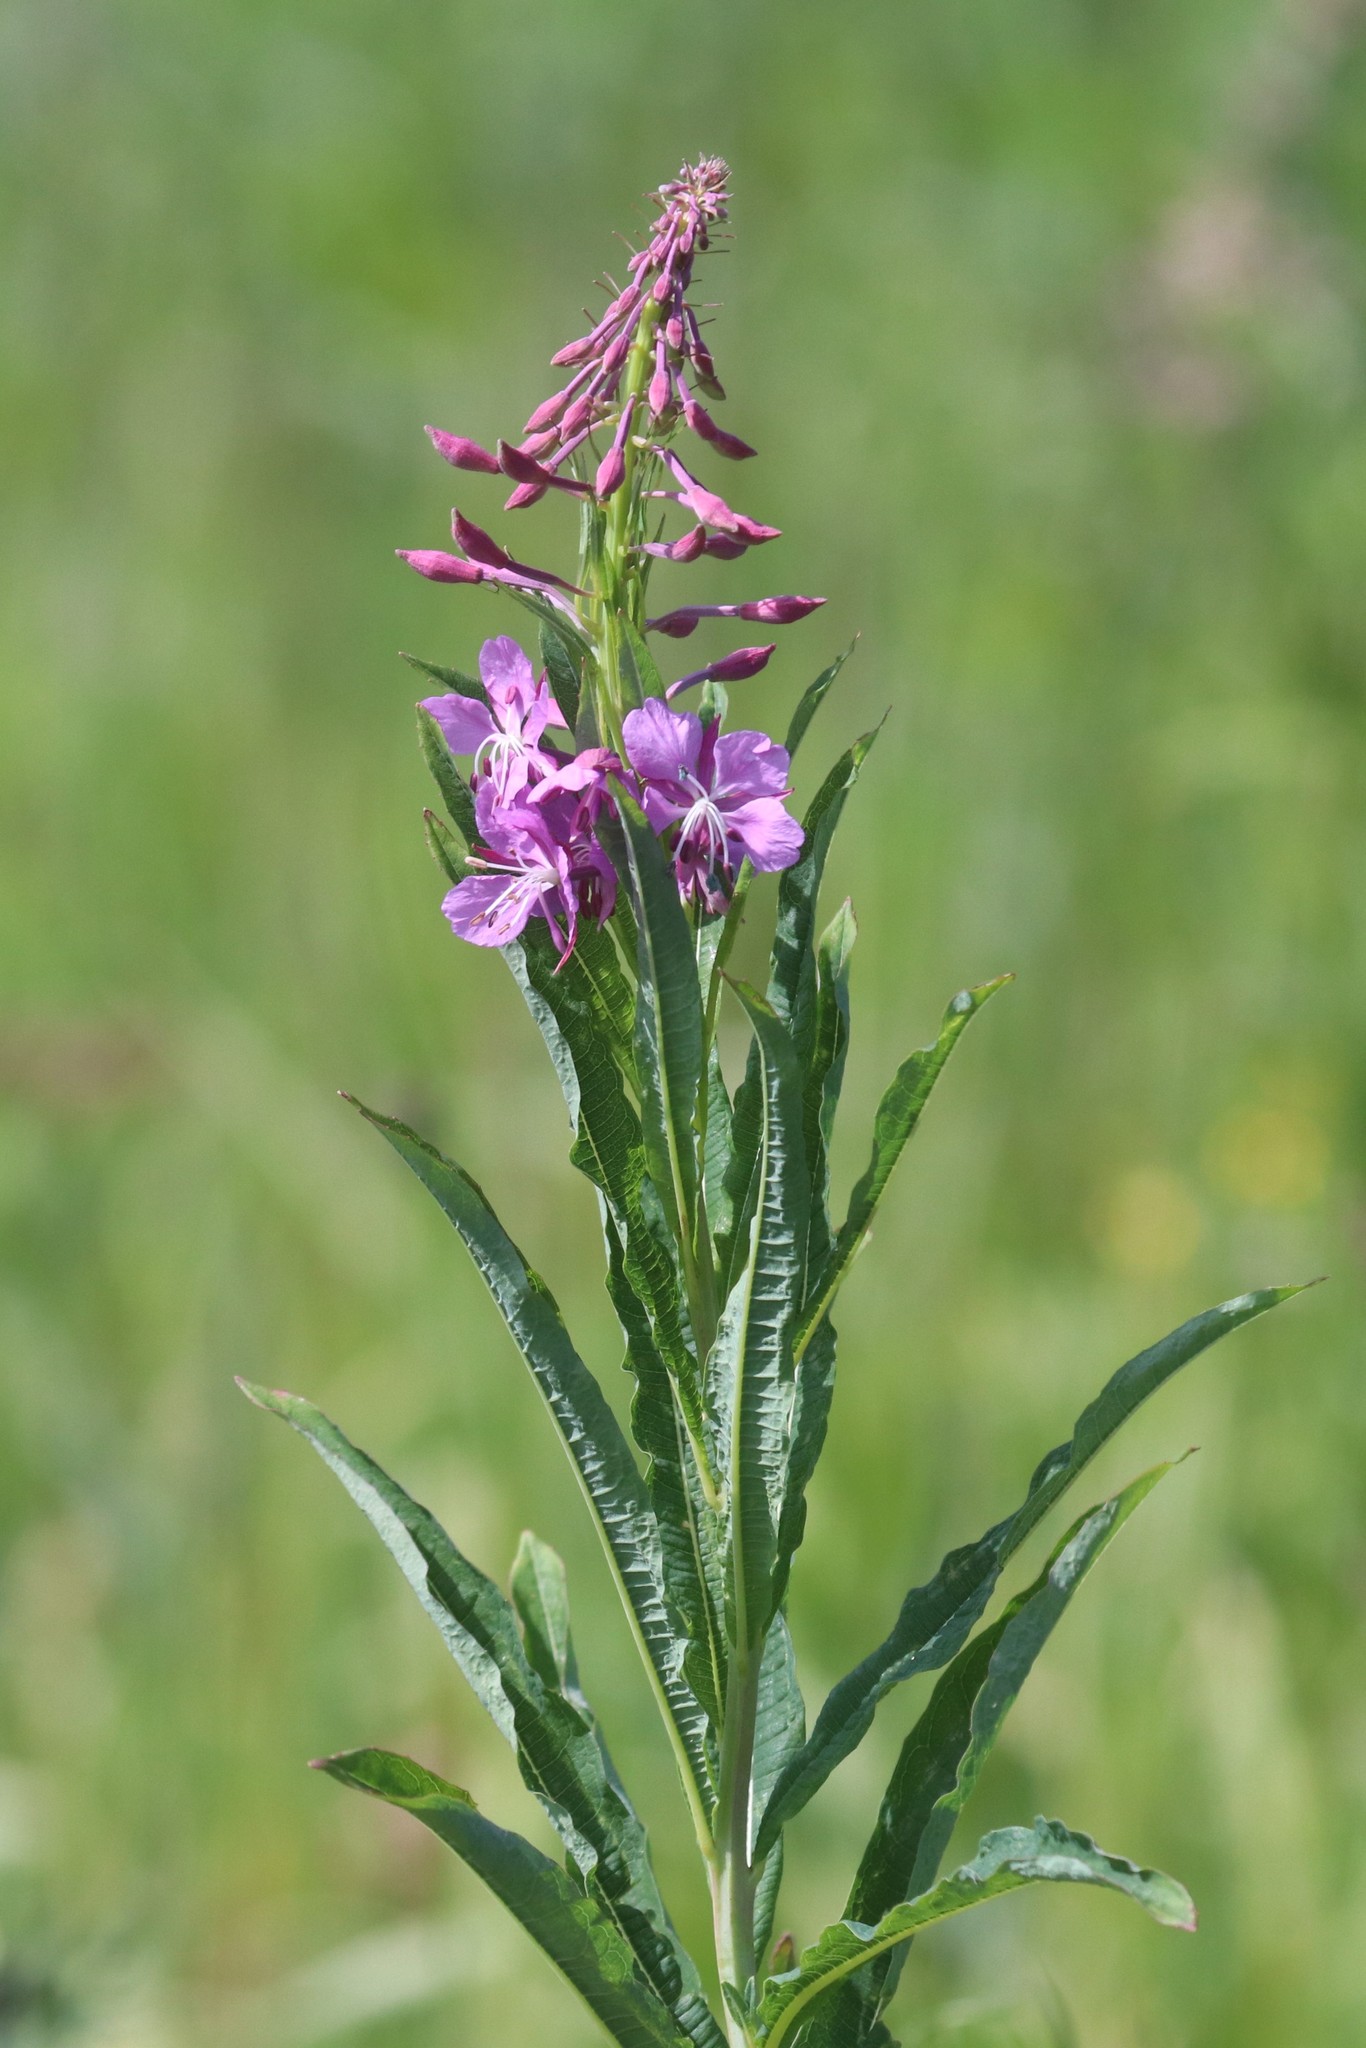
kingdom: Plantae
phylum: Tracheophyta
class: Magnoliopsida
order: Myrtales
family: Onagraceae
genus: Chamaenerion
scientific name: Chamaenerion angustifolium
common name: Fireweed
